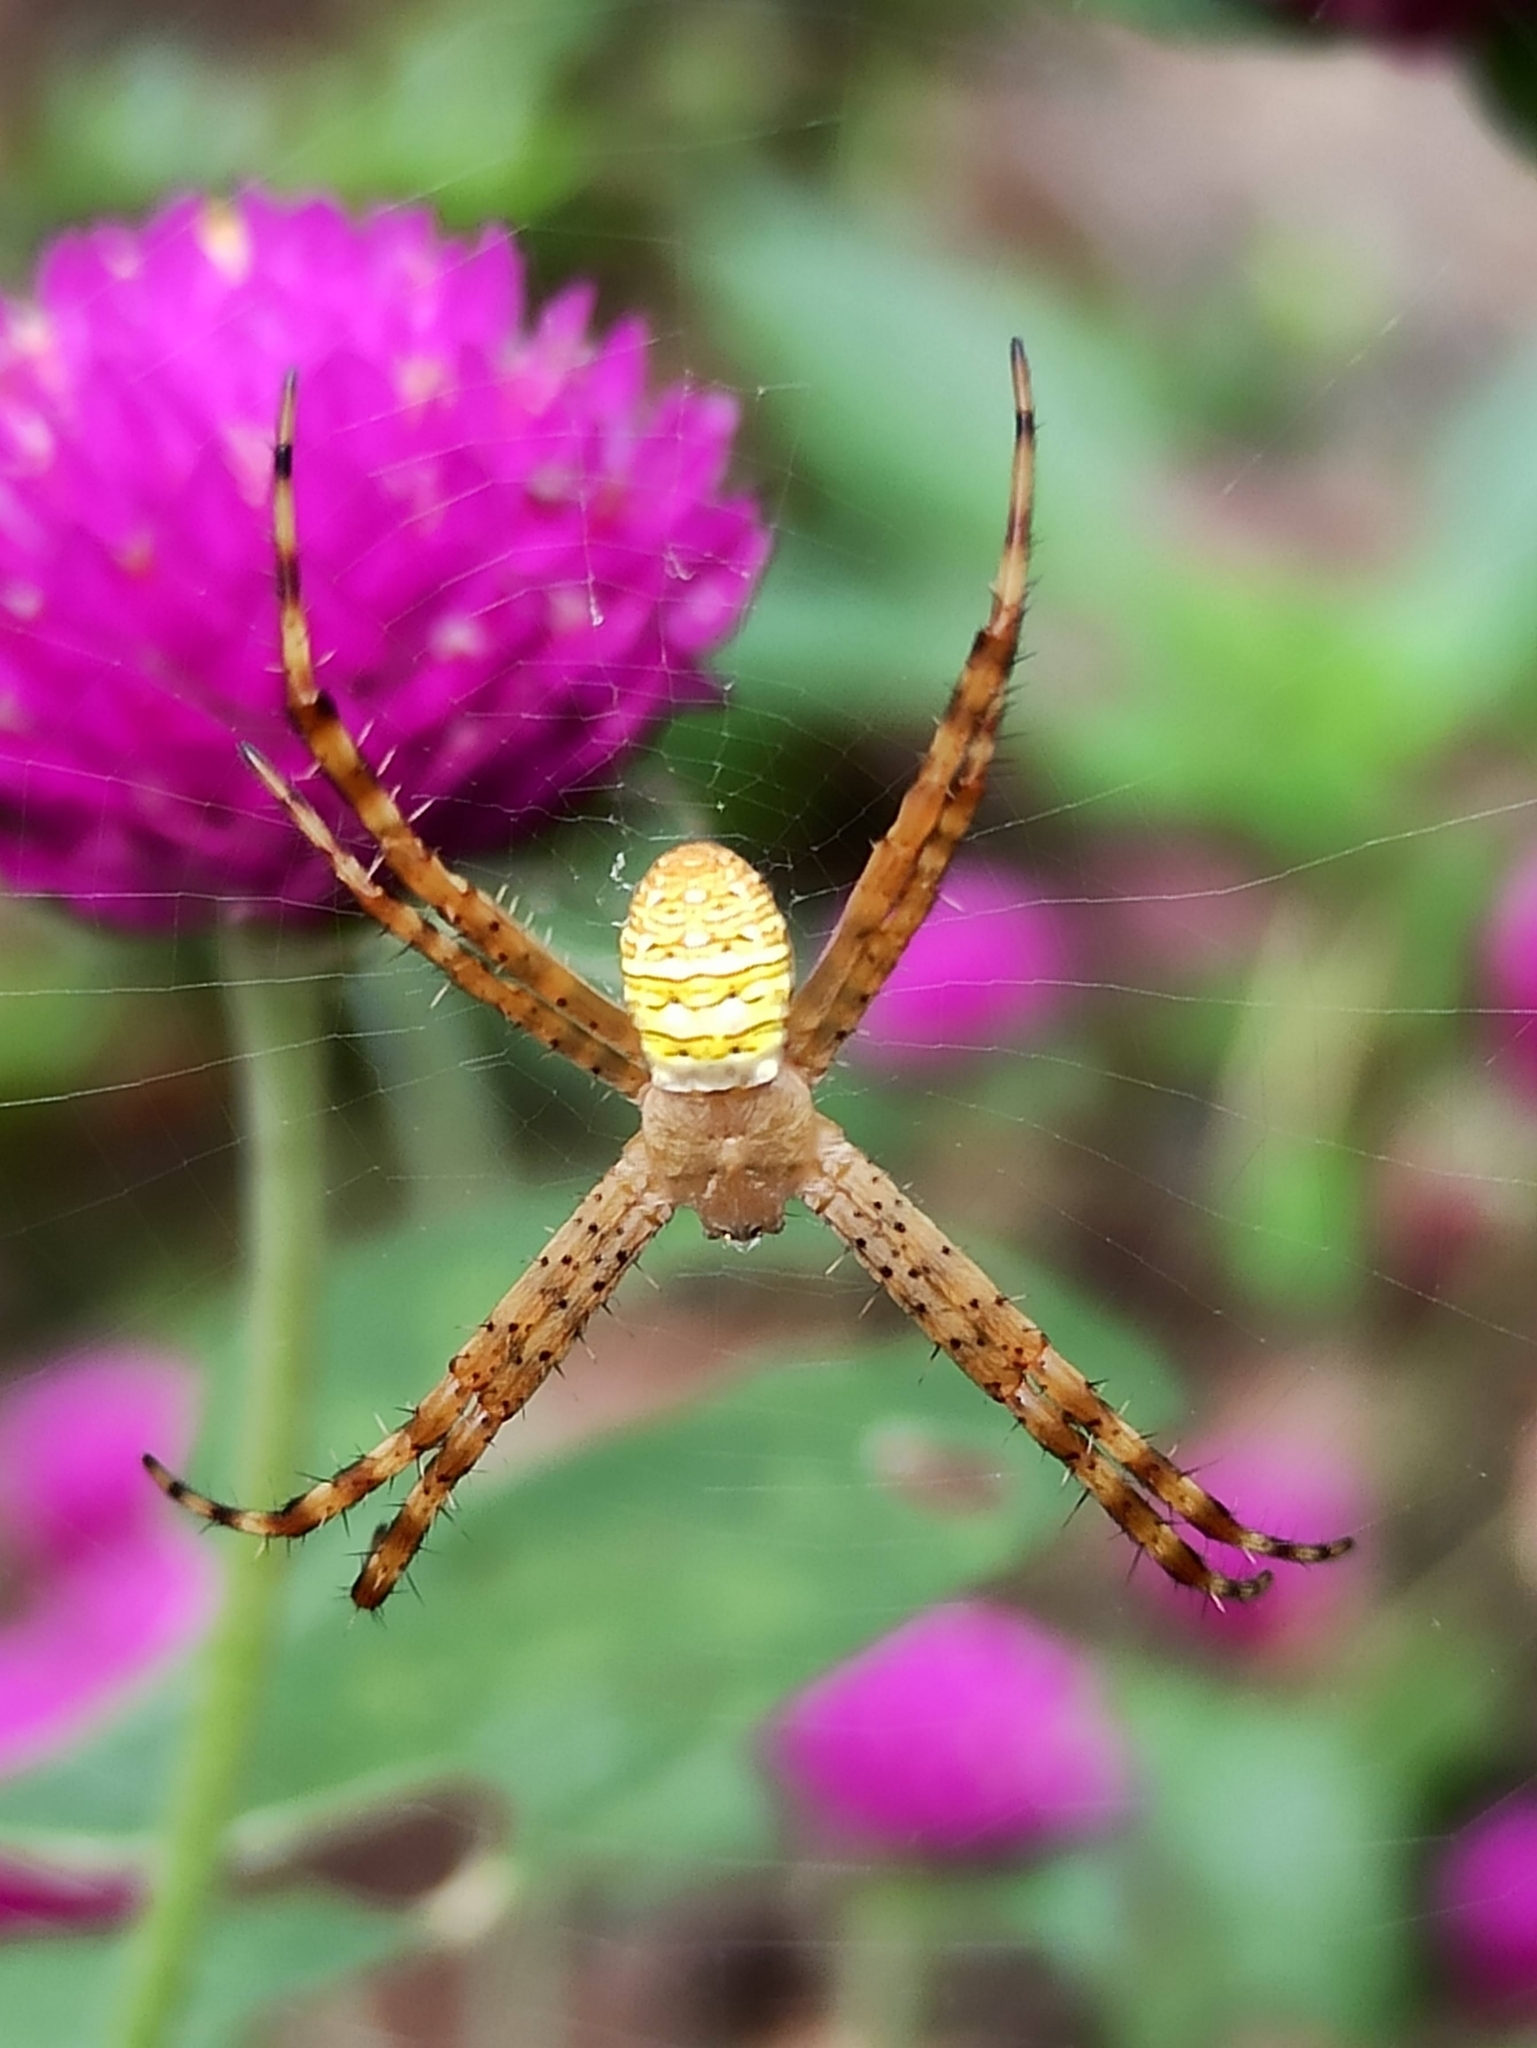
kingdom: Animalia
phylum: Arthropoda
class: Arachnida
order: Araneae
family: Araneidae
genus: Argiope
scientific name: Argiope aemula
